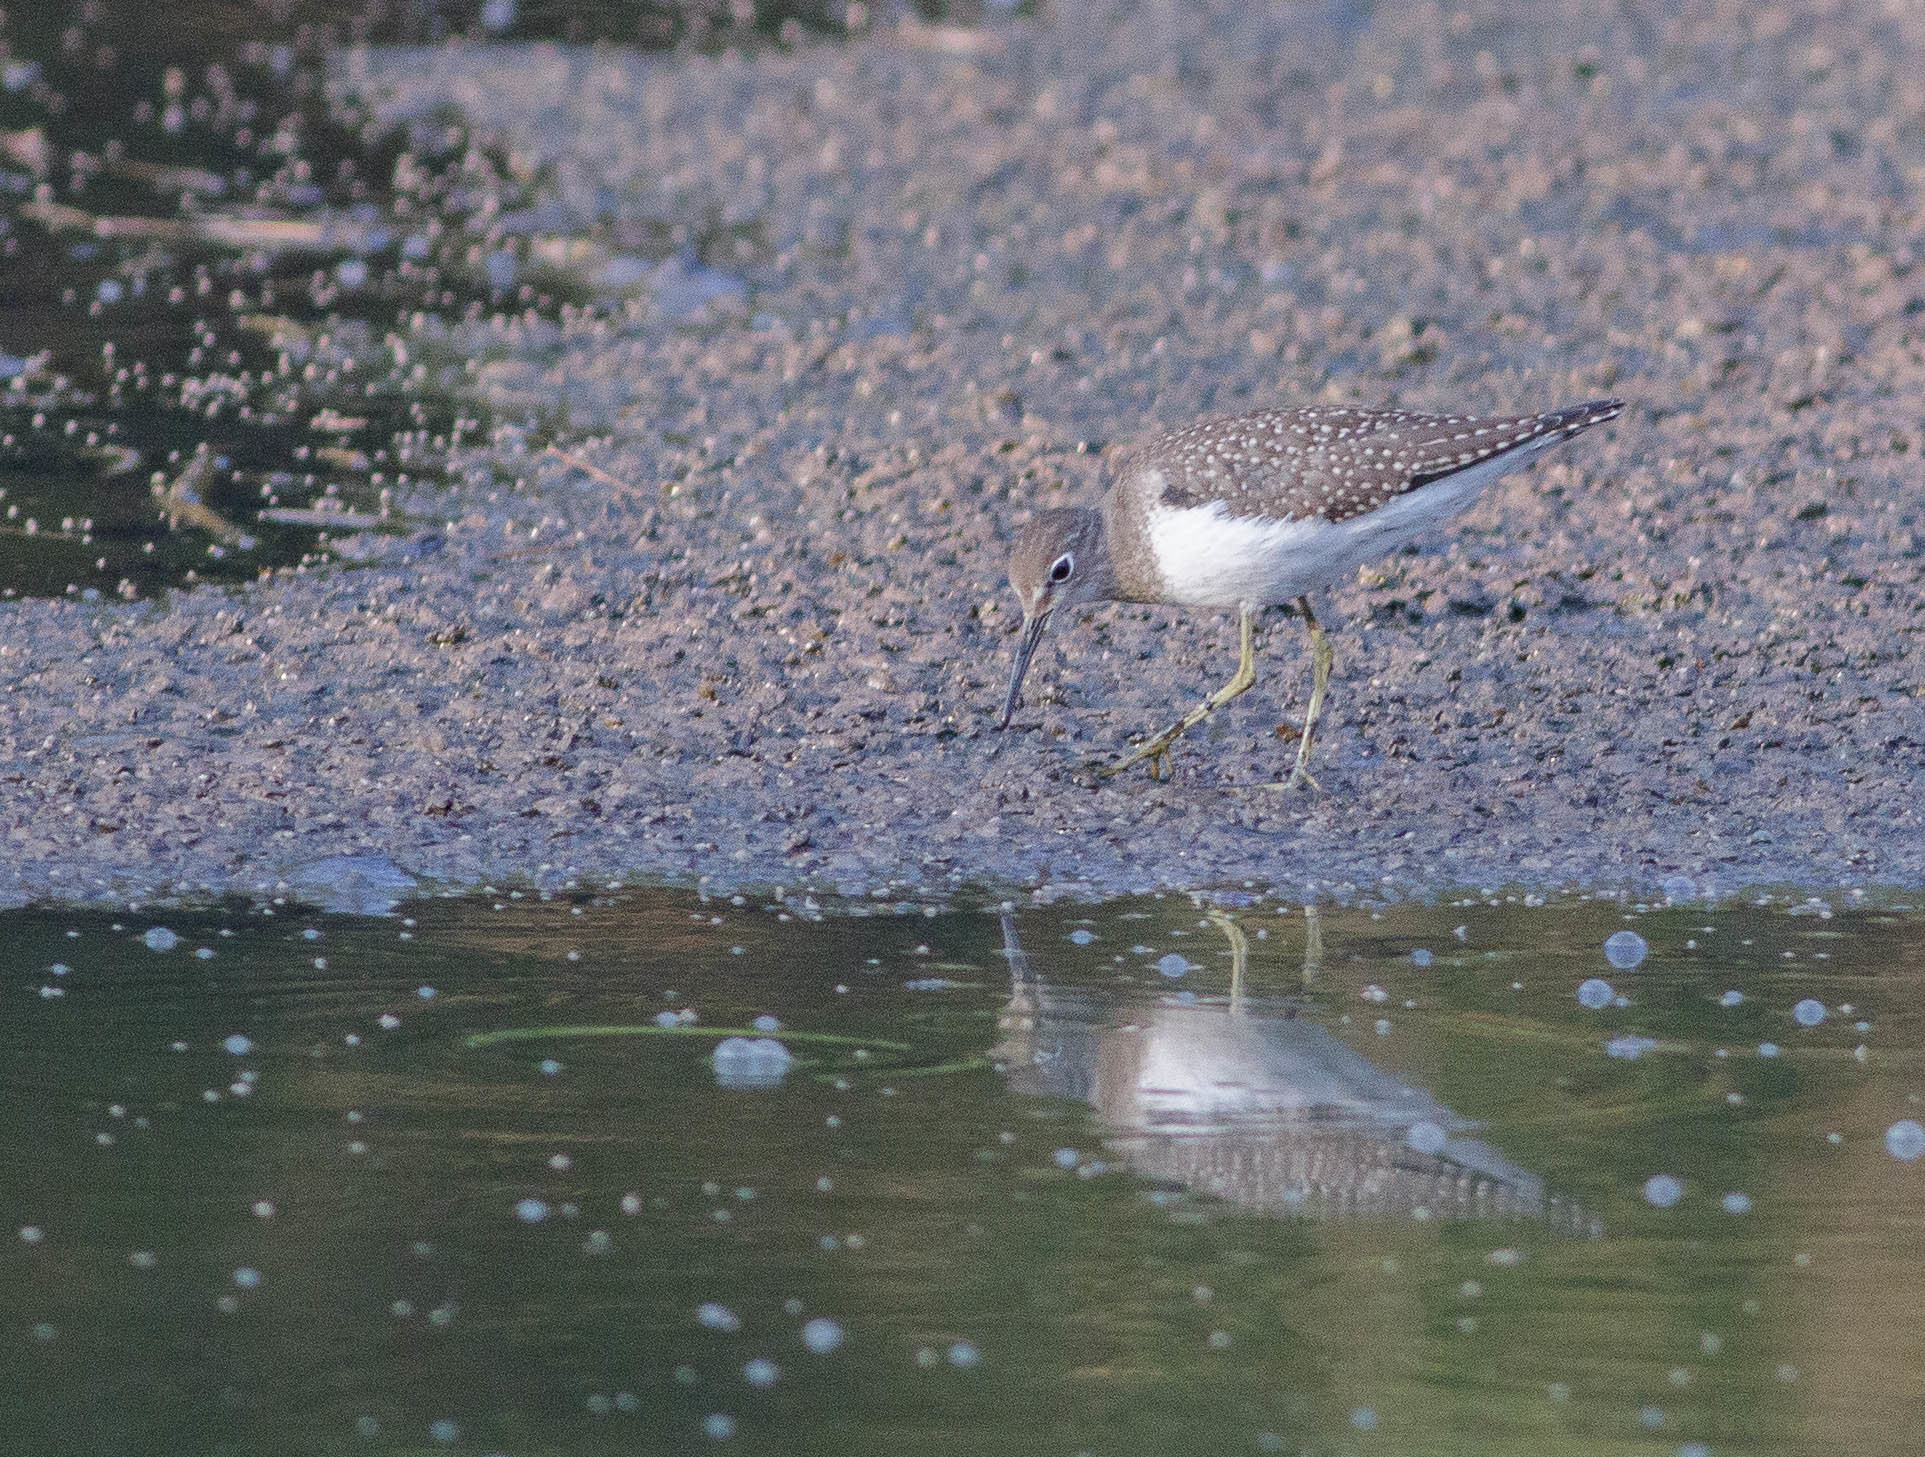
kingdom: Animalia
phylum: Chordata
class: Aves
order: Charadriiformes
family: Scolopacidae
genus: Tringa
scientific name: Tringa solitaria
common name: Solitary sandpiper
